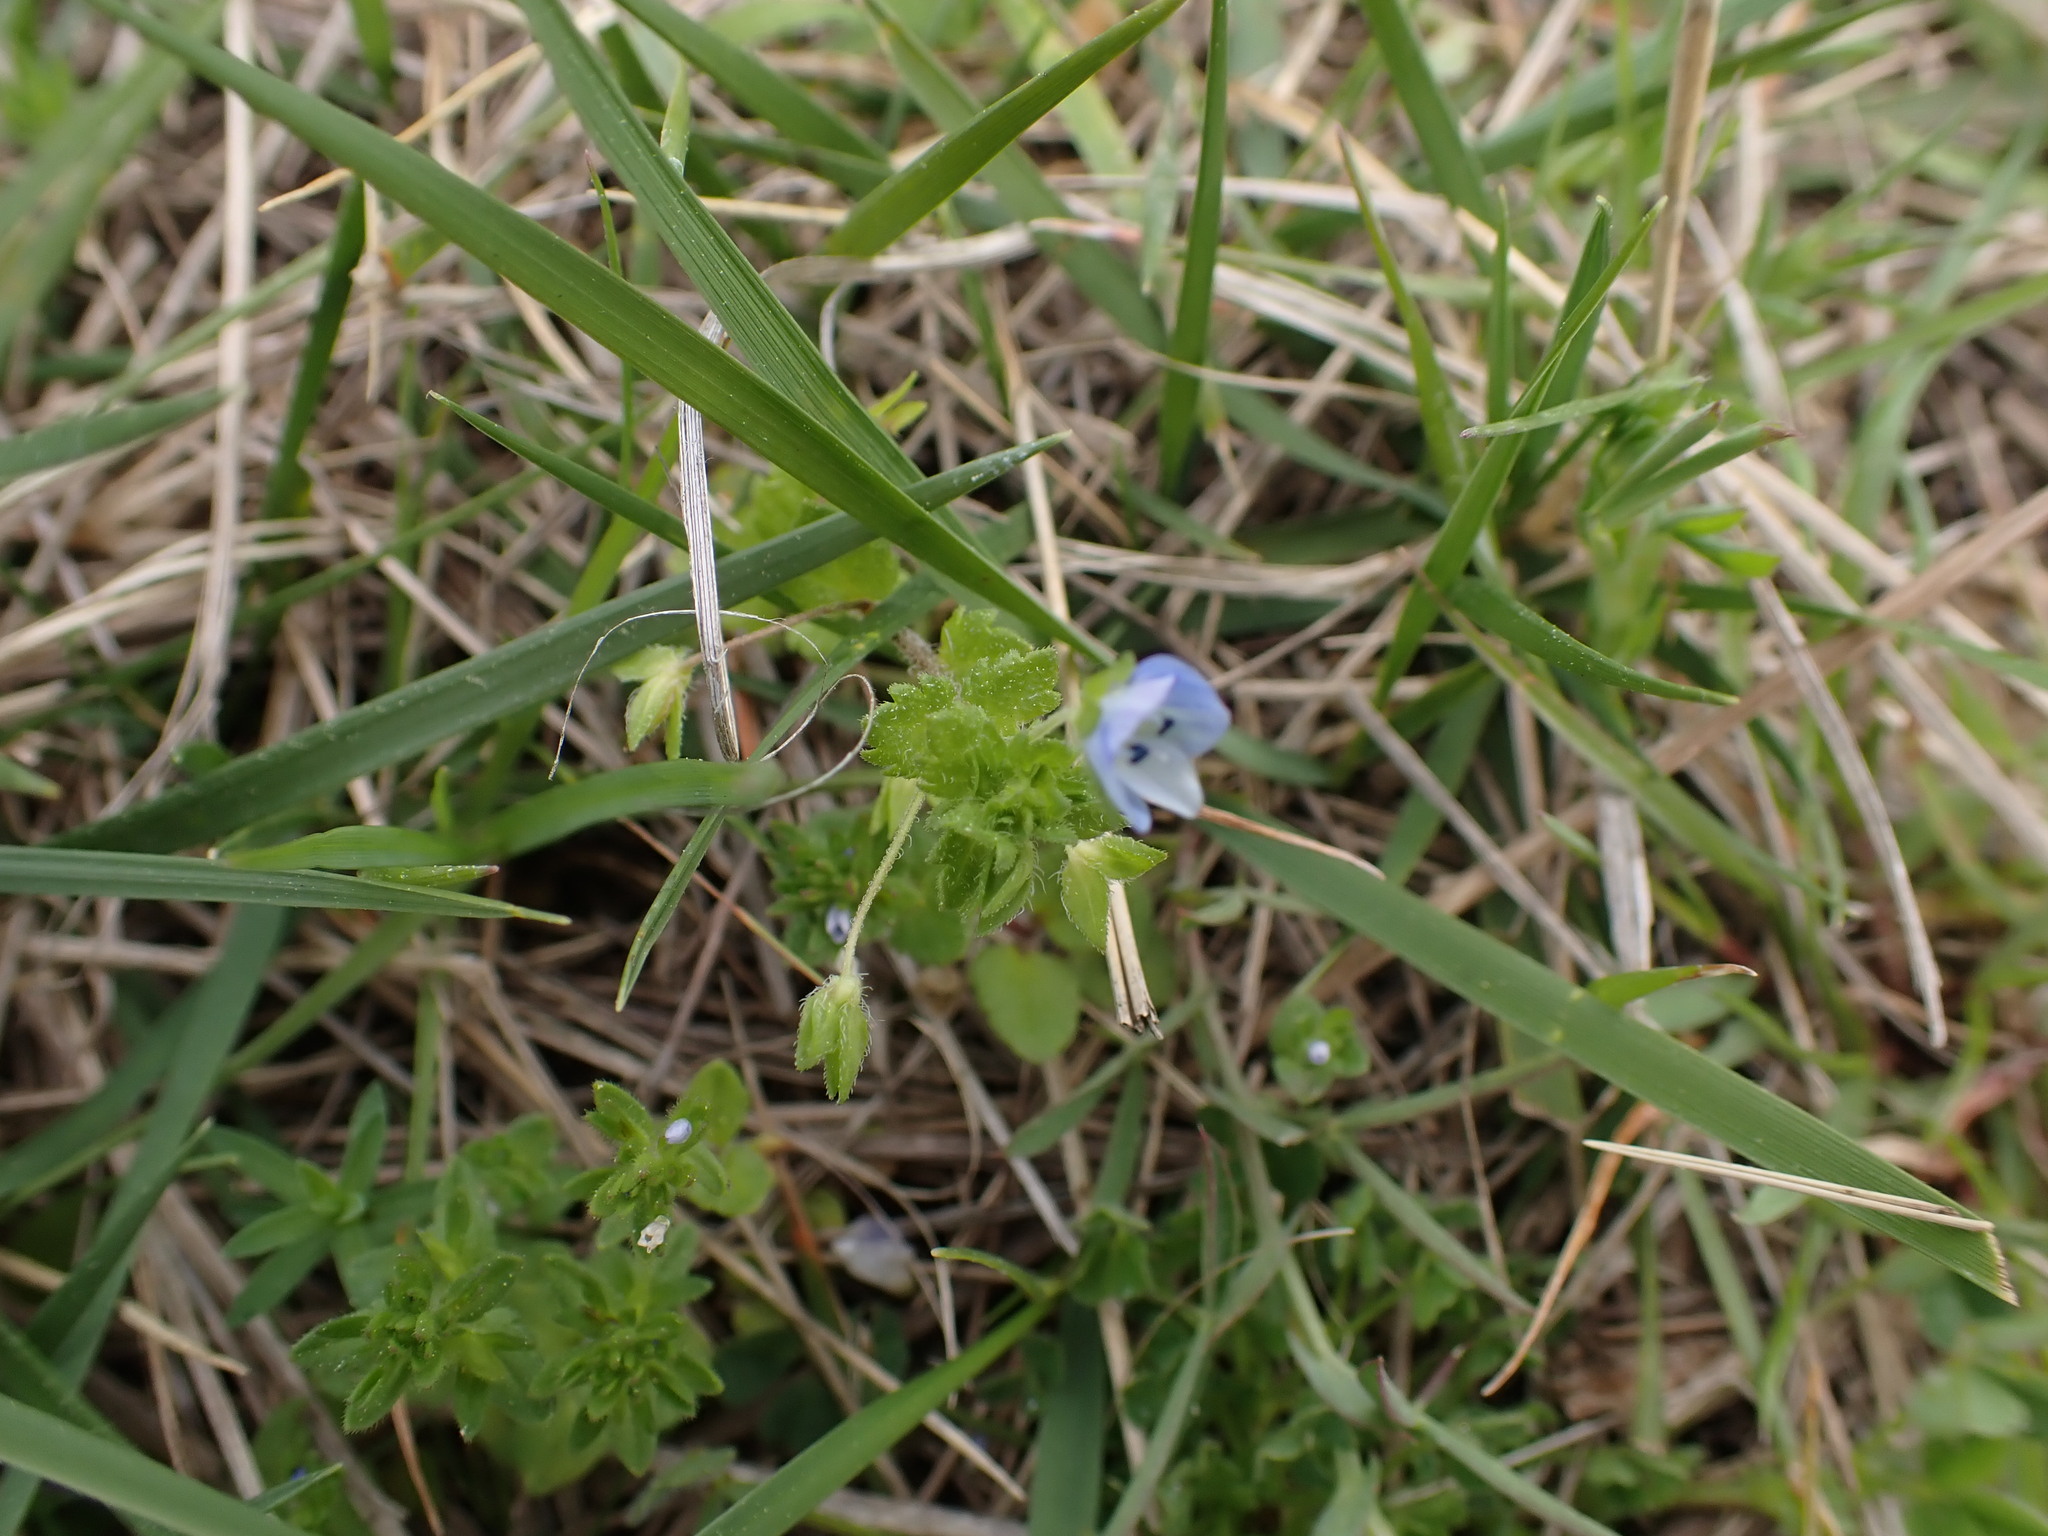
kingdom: Plantae
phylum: Tracheophyta
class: Magnoliopsida
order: Lamiales
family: Plantaginaceae
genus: Veronica
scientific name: Veronica persica
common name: Common field-speedwell
